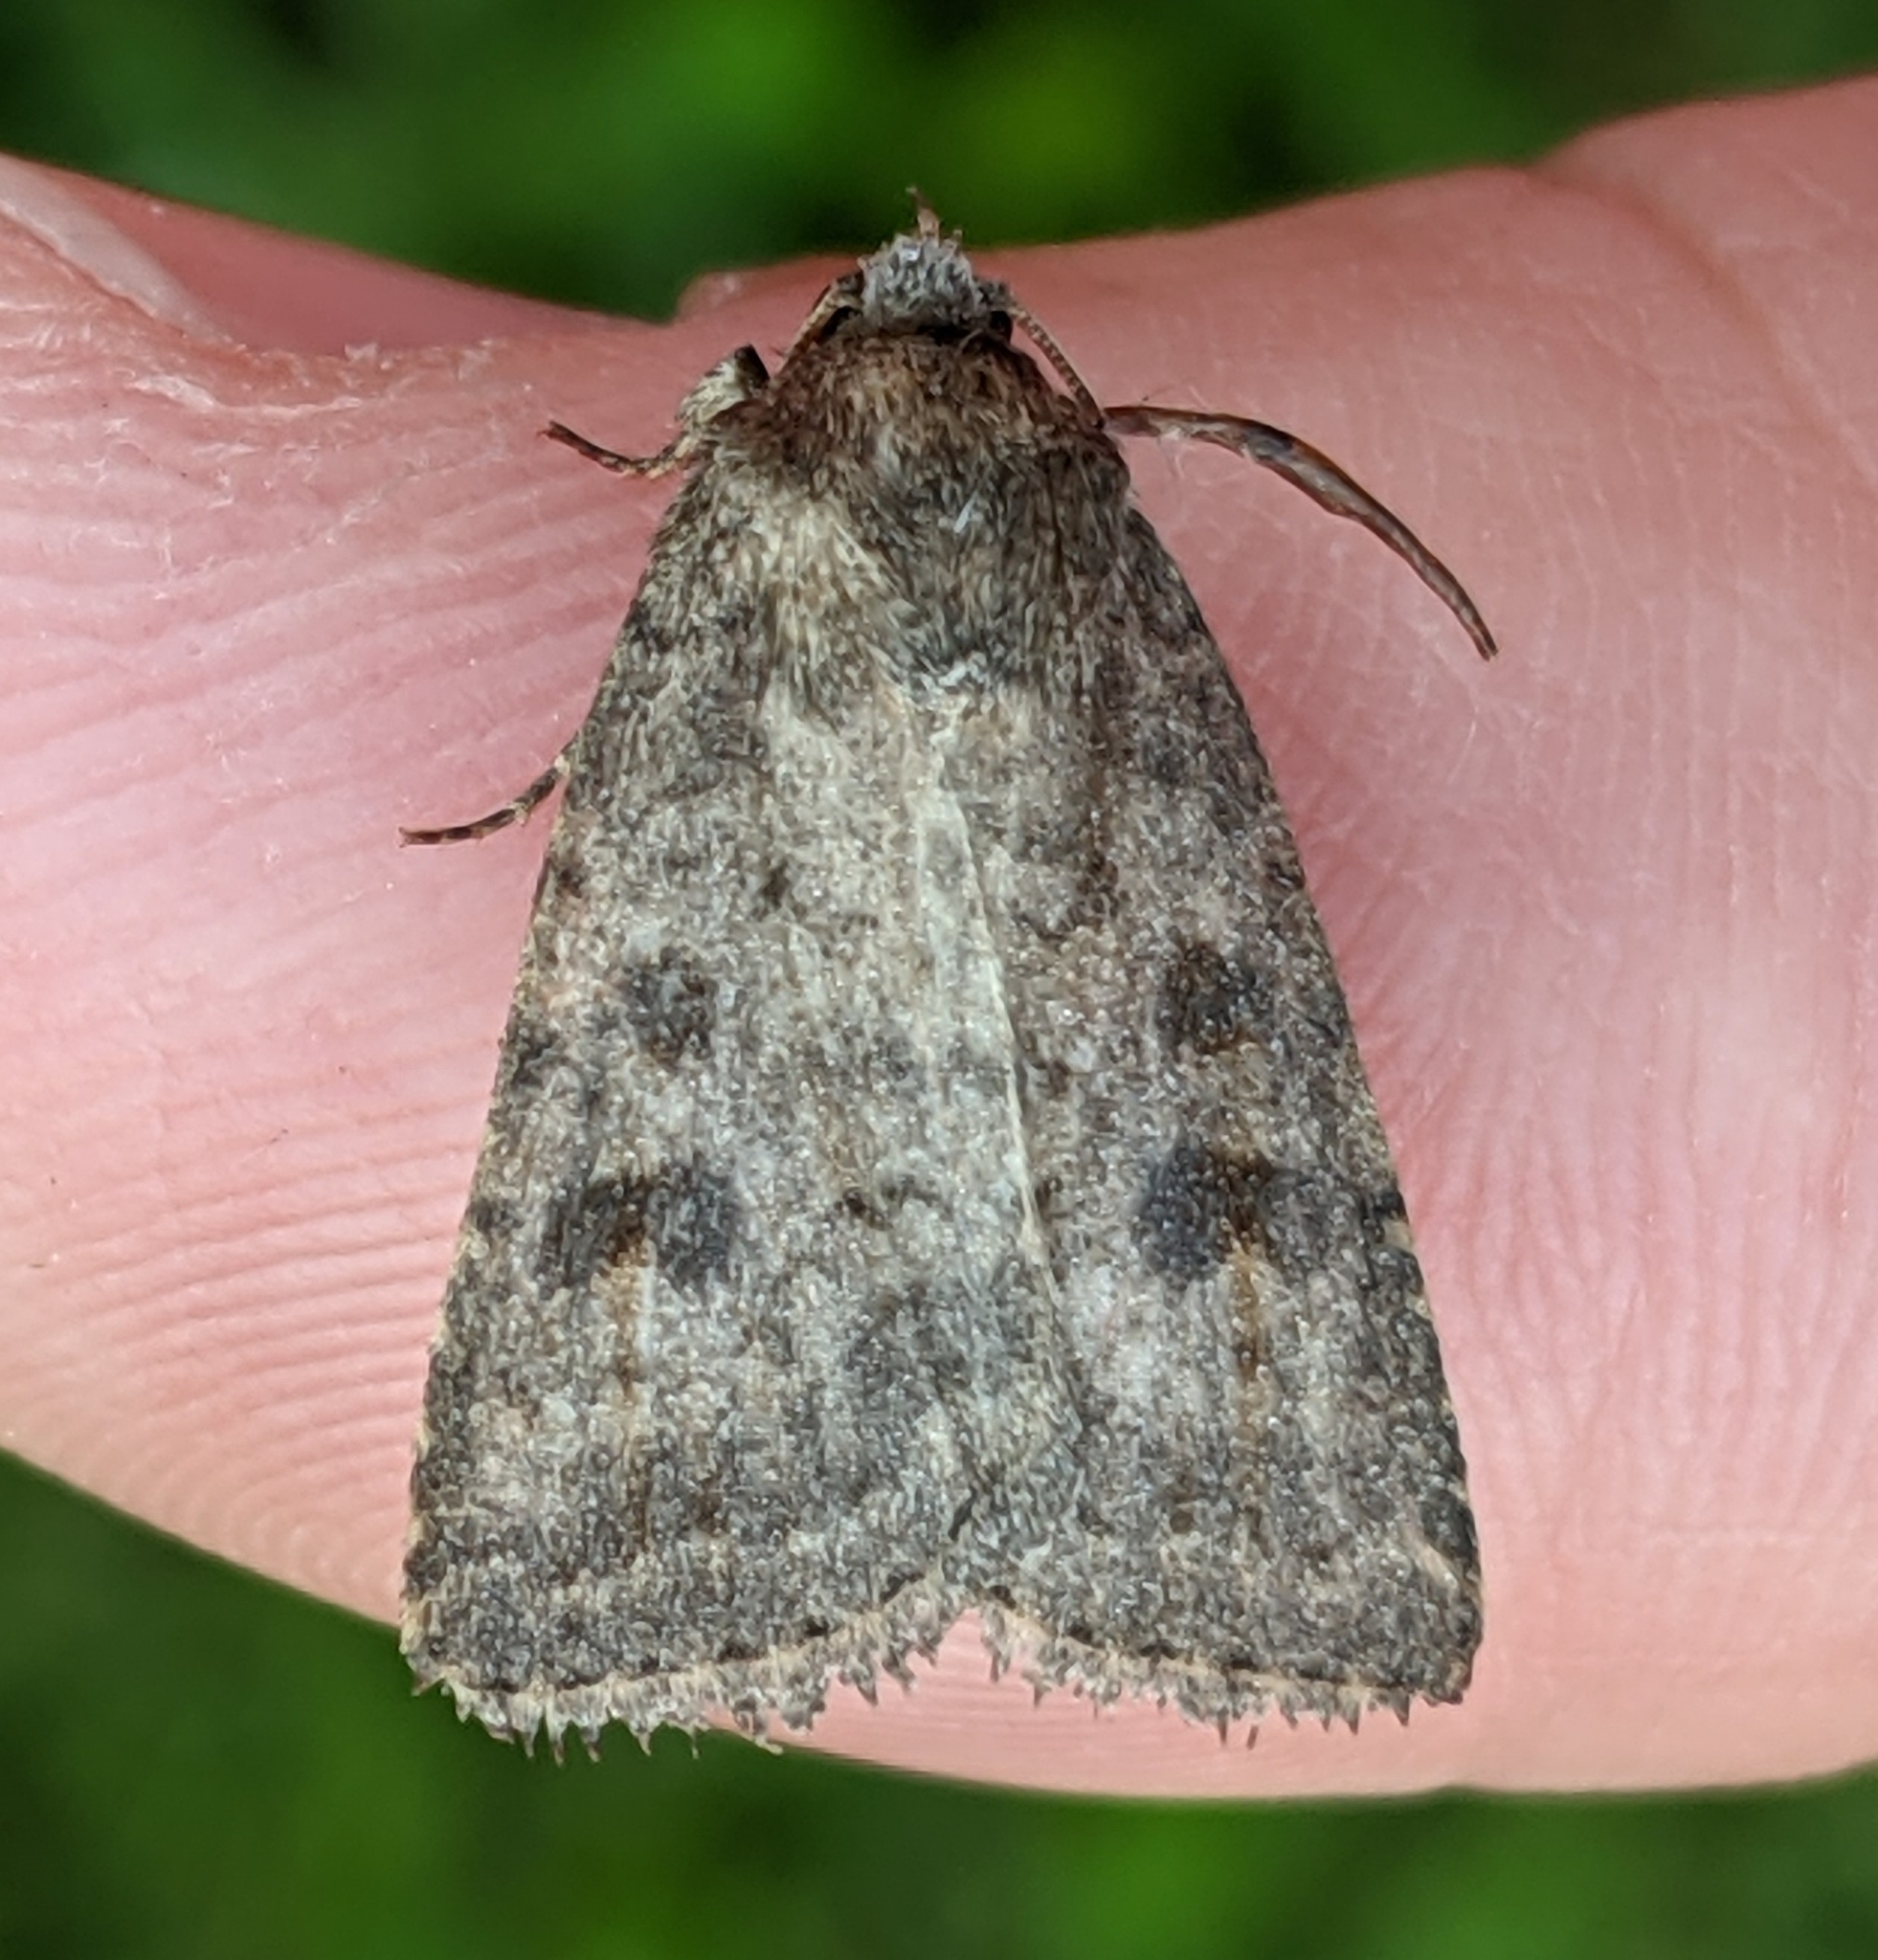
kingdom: Animalia
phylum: Arthropoda
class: Insecta
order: Lepidoptera
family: Noctuidae
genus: Caradrina
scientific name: Caradrina morpheus
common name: Mottled rustic
